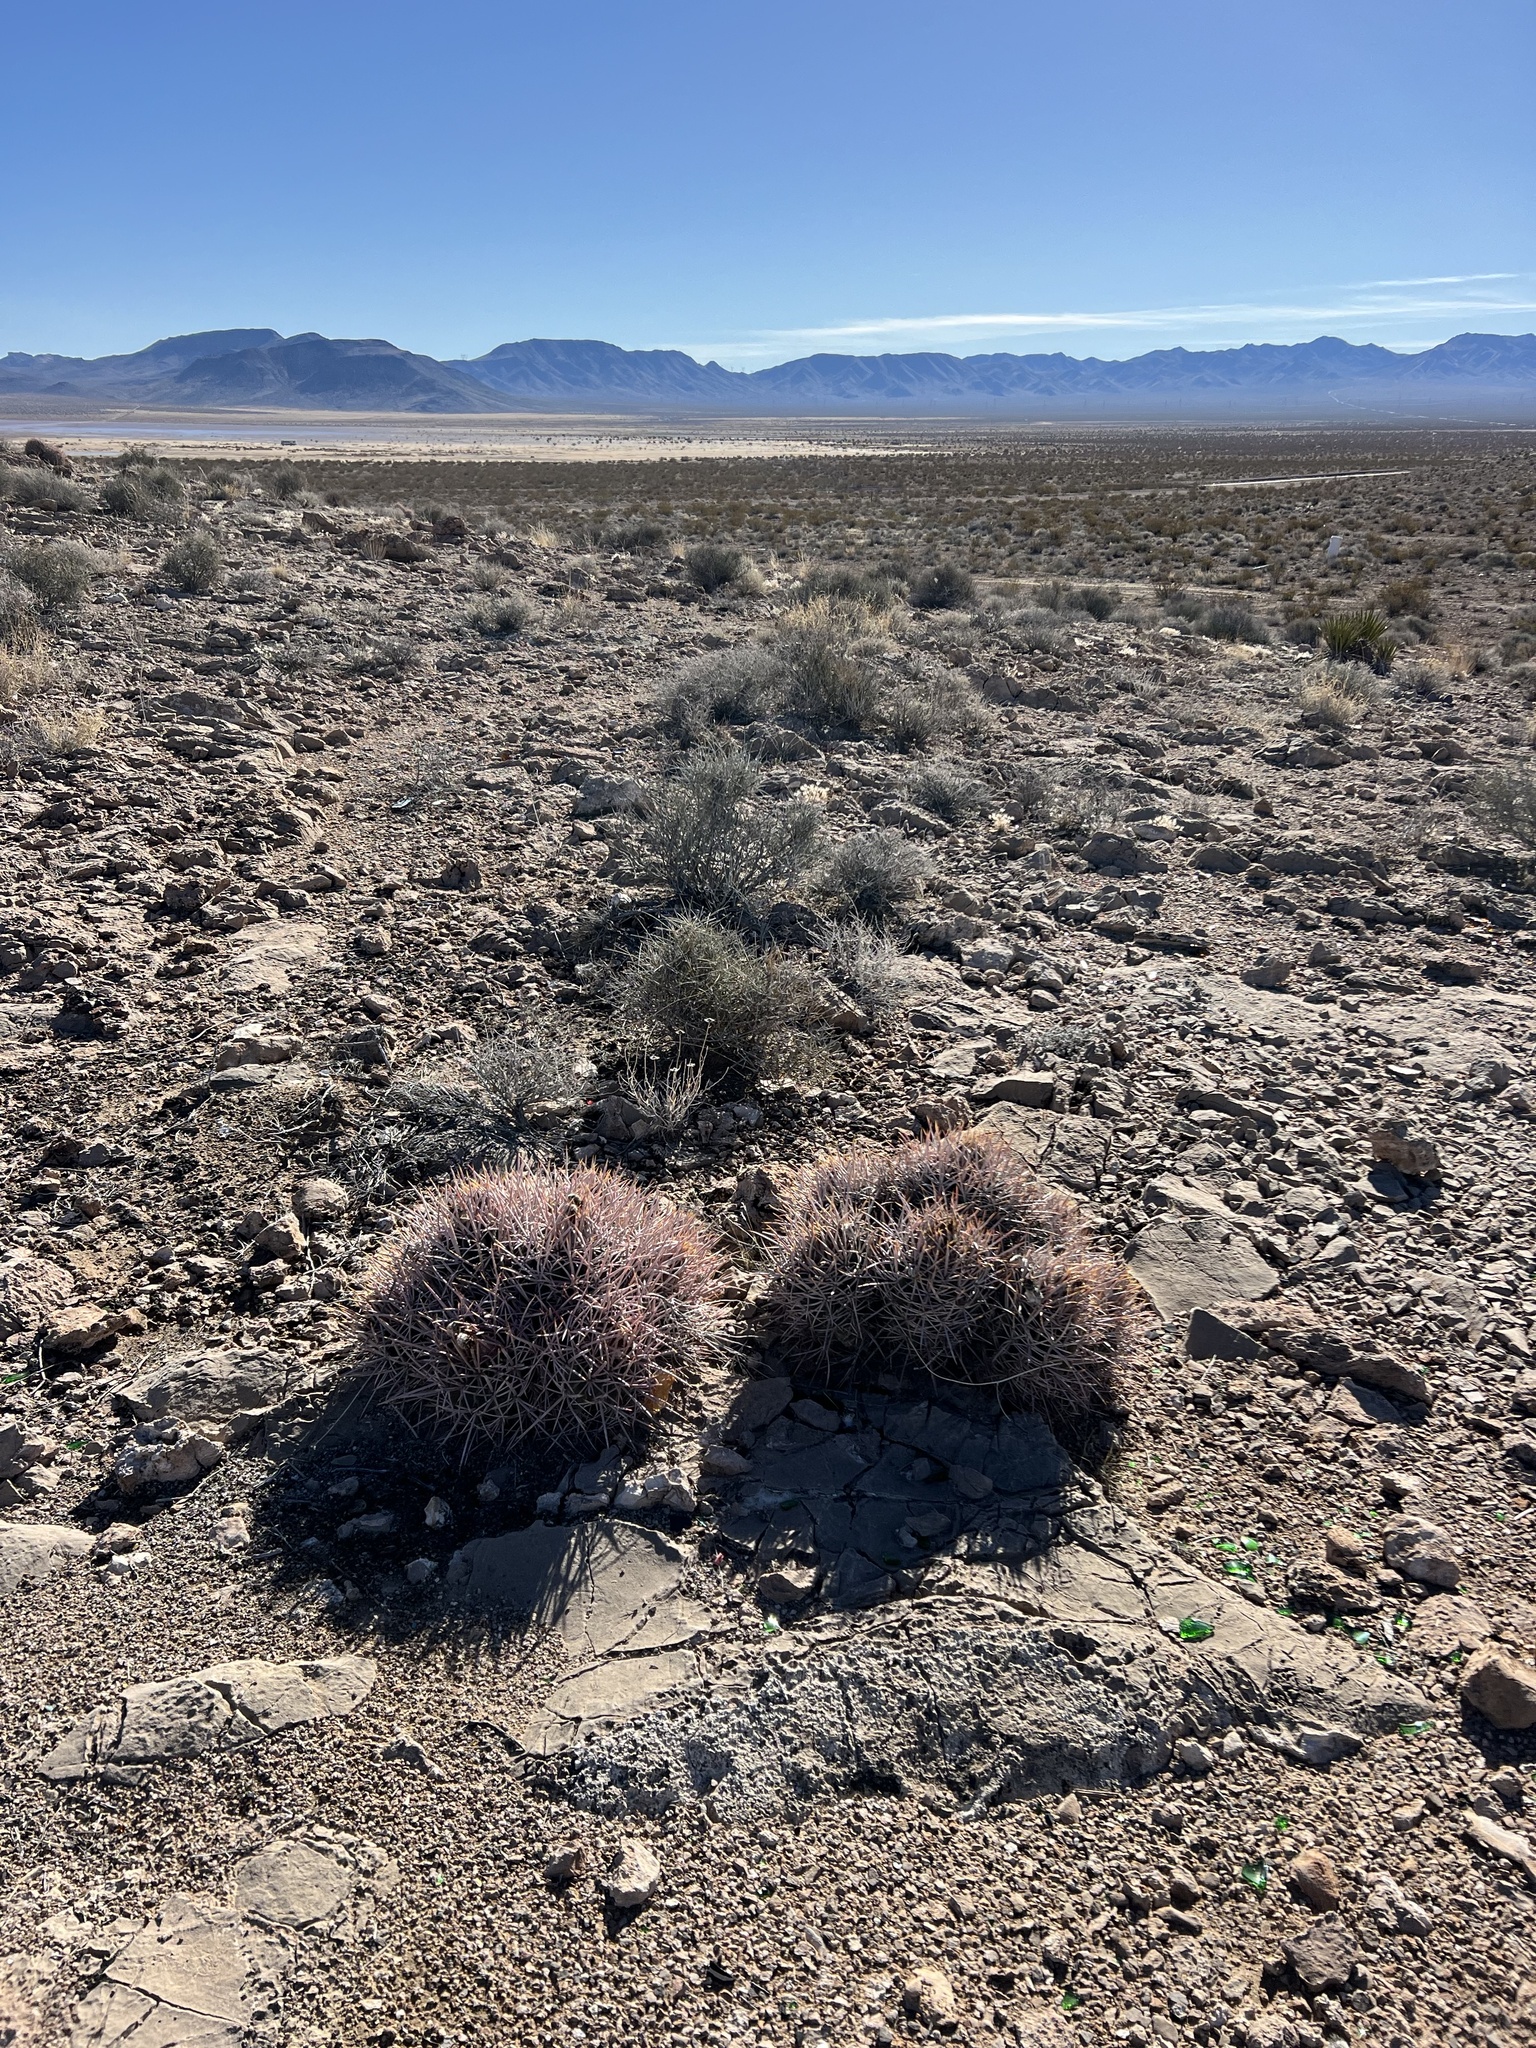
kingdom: Plantae
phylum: Tracheophyta
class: Magnoliopsida
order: Caryophyllales
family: Cactaceae
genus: Echinocactus
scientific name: Echinocactus polycephalus
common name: Cottontop cactus
